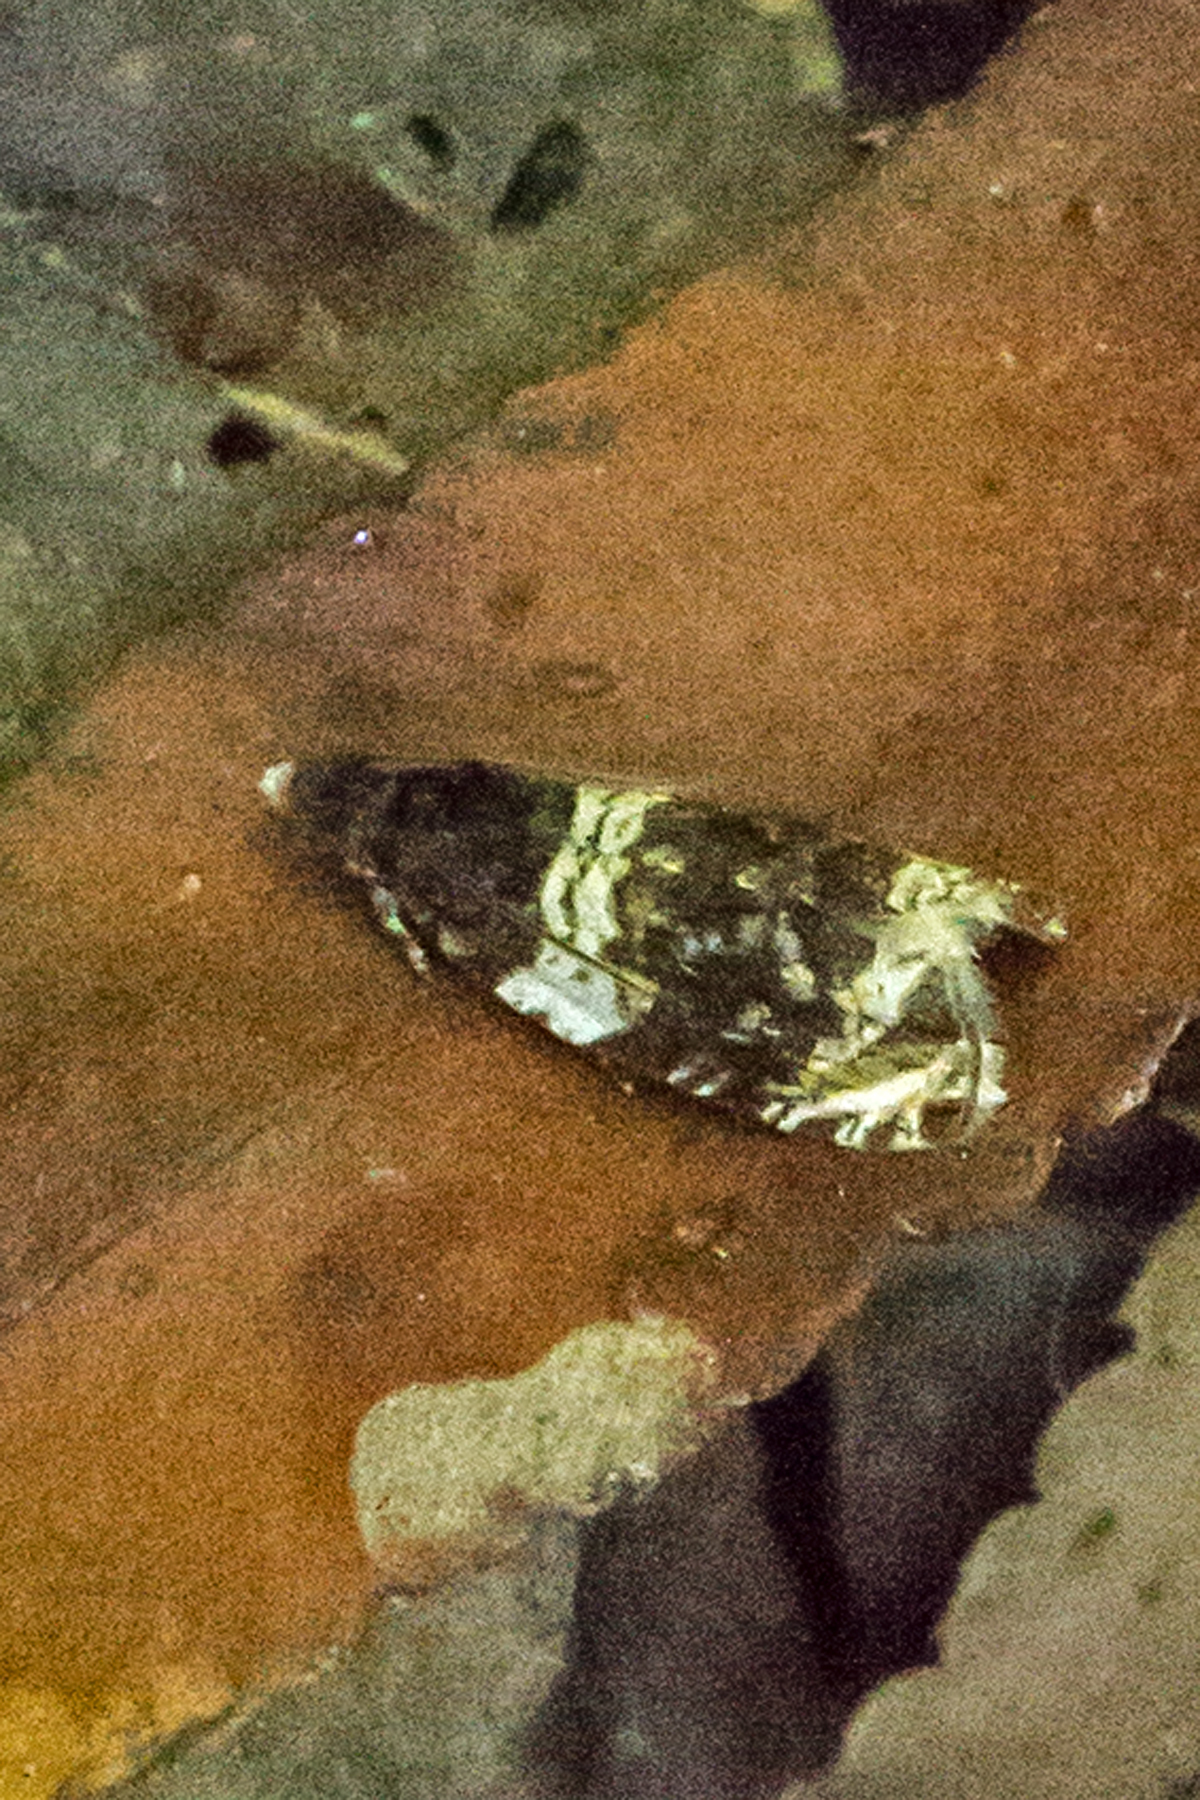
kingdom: Animalia
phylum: Arthropoda
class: Insecta
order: Lepidoptera
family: Tortricidae
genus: Olethreutes
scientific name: Olethreutes fasciatana
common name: Banded olethreutes moth
